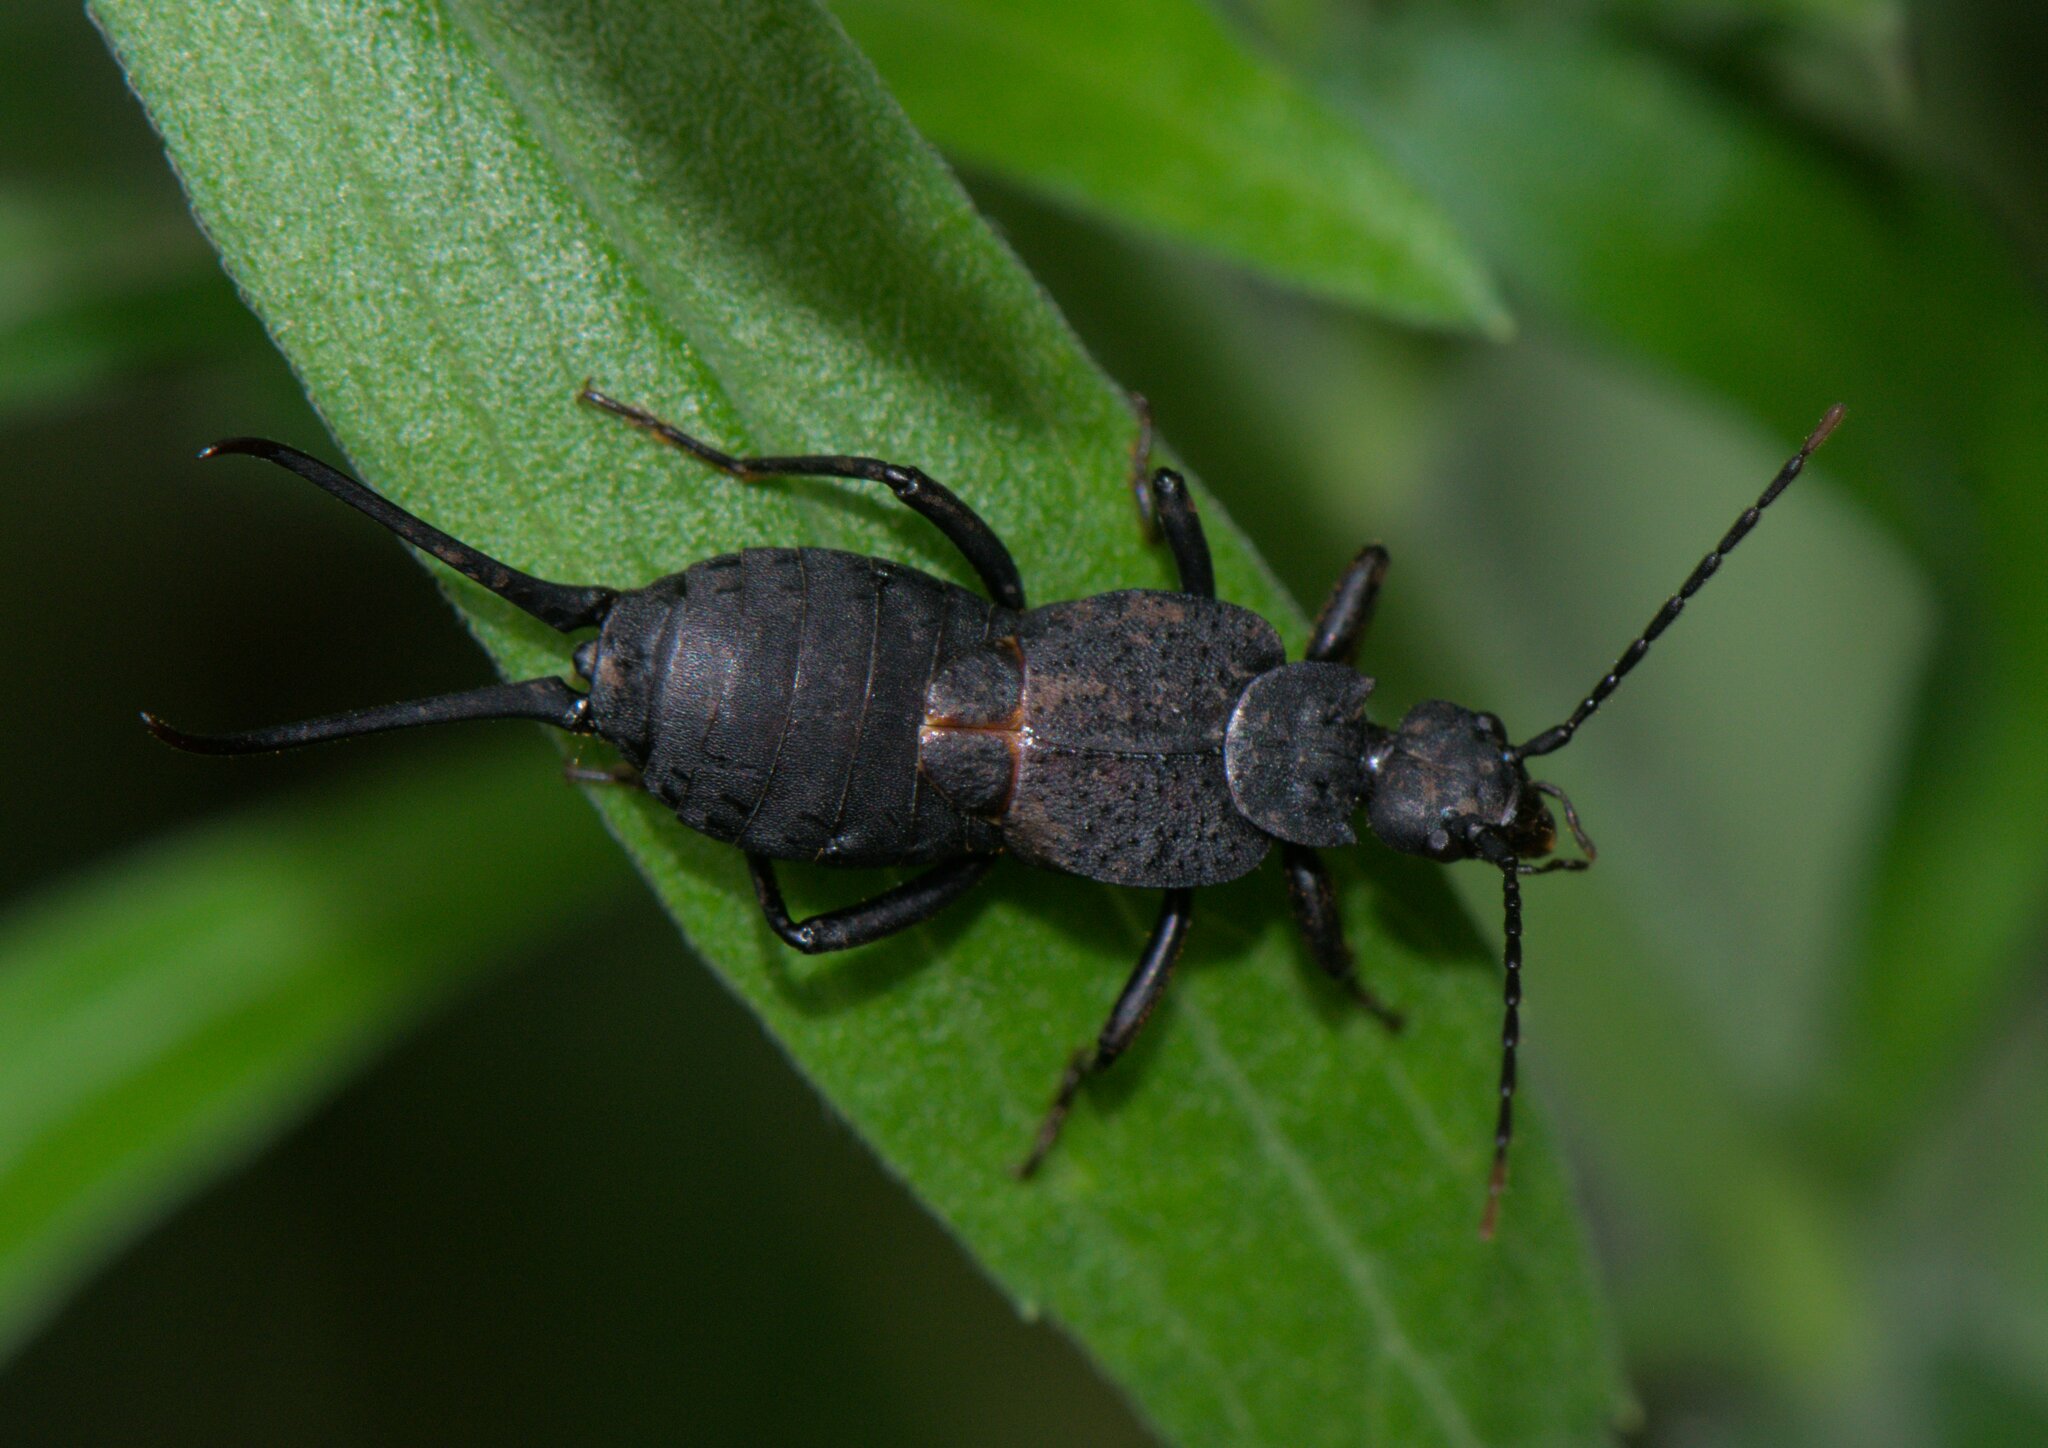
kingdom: Animalia
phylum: Arthropoda
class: Insecta
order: Dermaptera
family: Forficulidae
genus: Allodahlia
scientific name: Allodahlia scabriuscula
